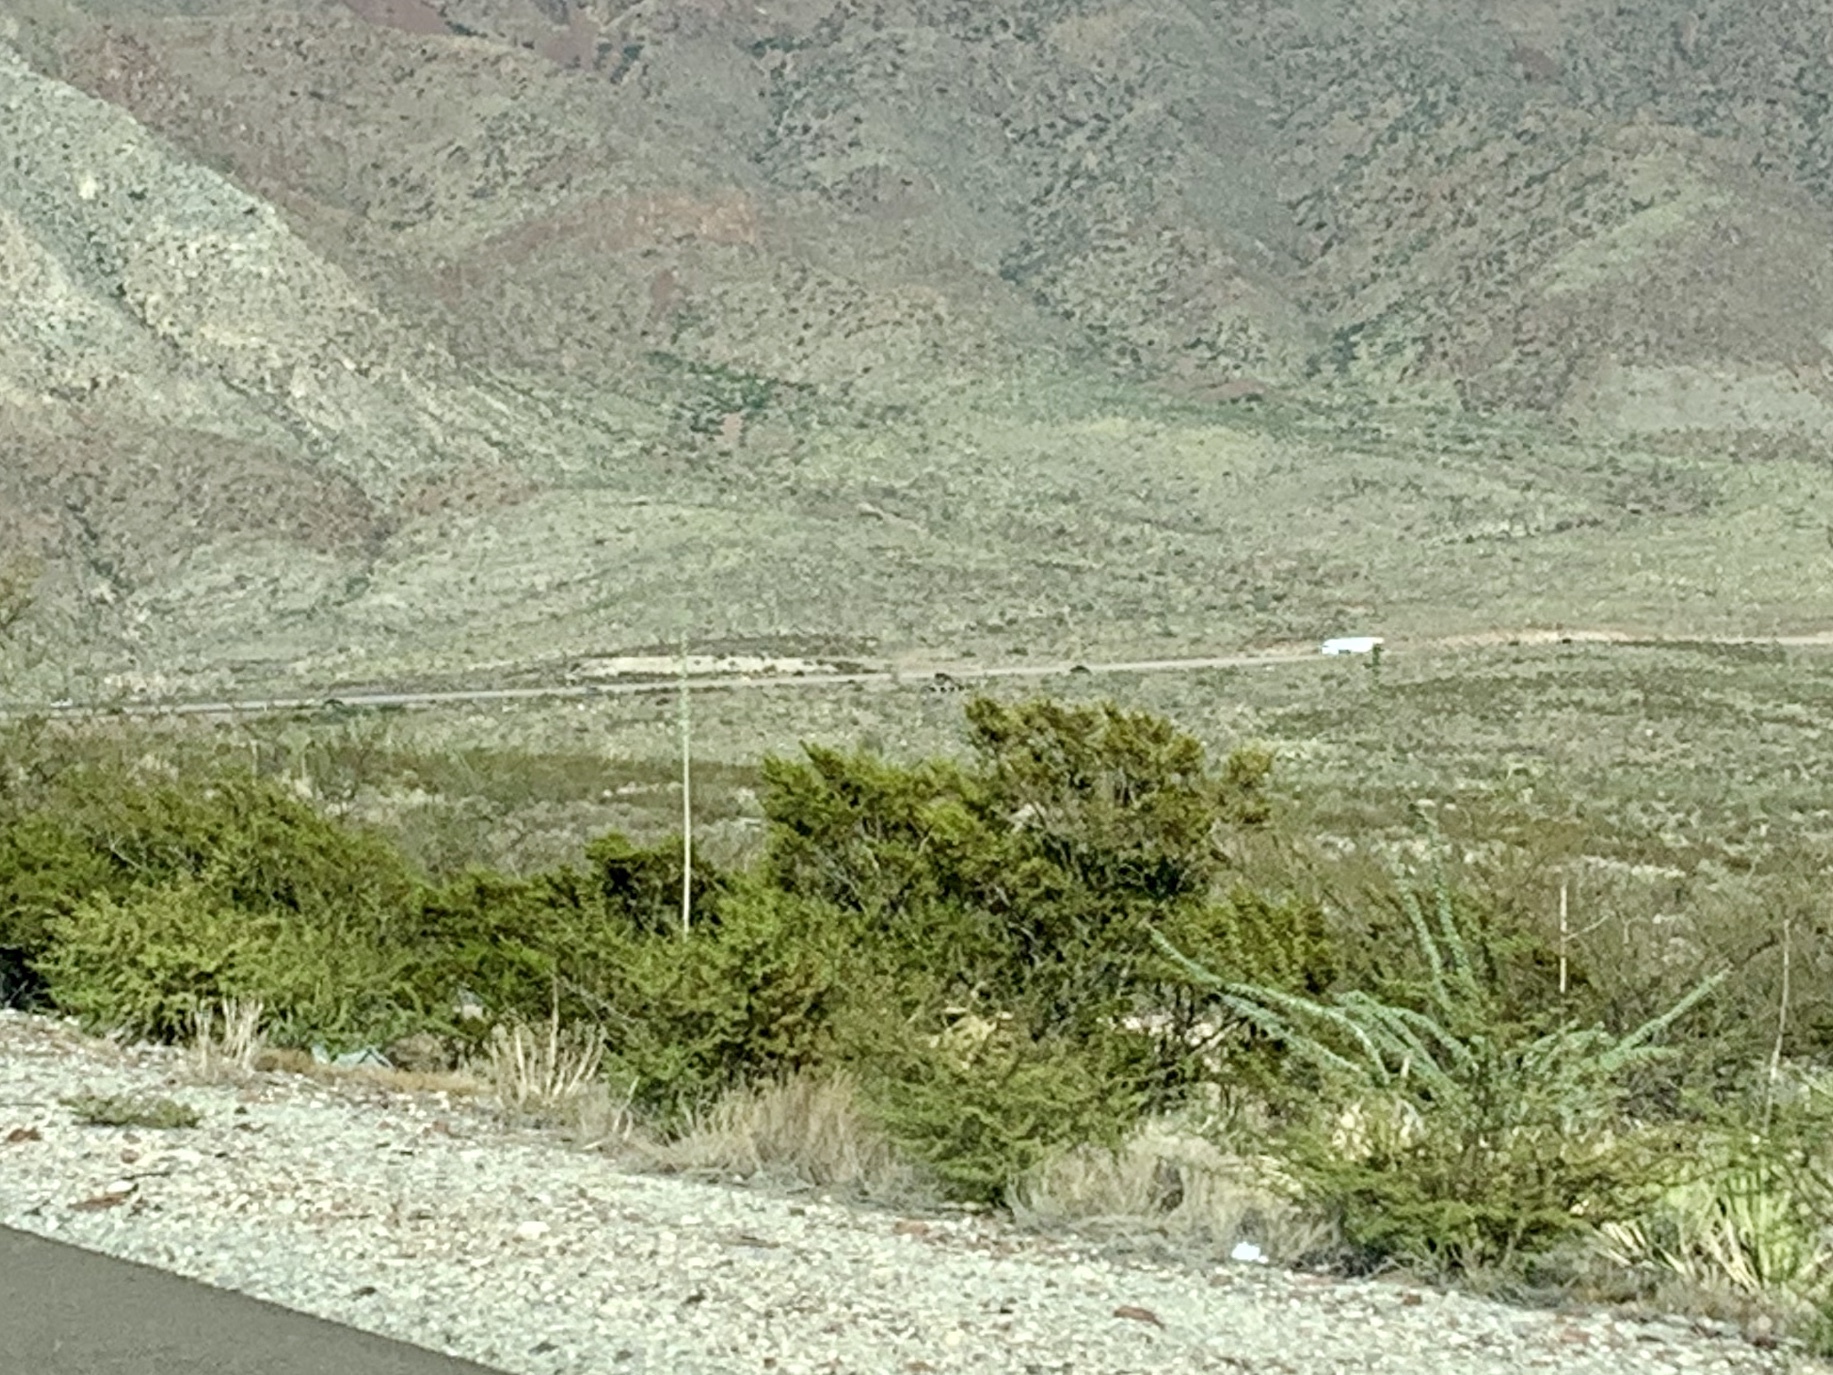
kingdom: Plantae
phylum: Tracheophyta
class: Magnoliopsida
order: Zygophyllales
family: Zygophyllaceae
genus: Larrea
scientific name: Larrea tridentata
